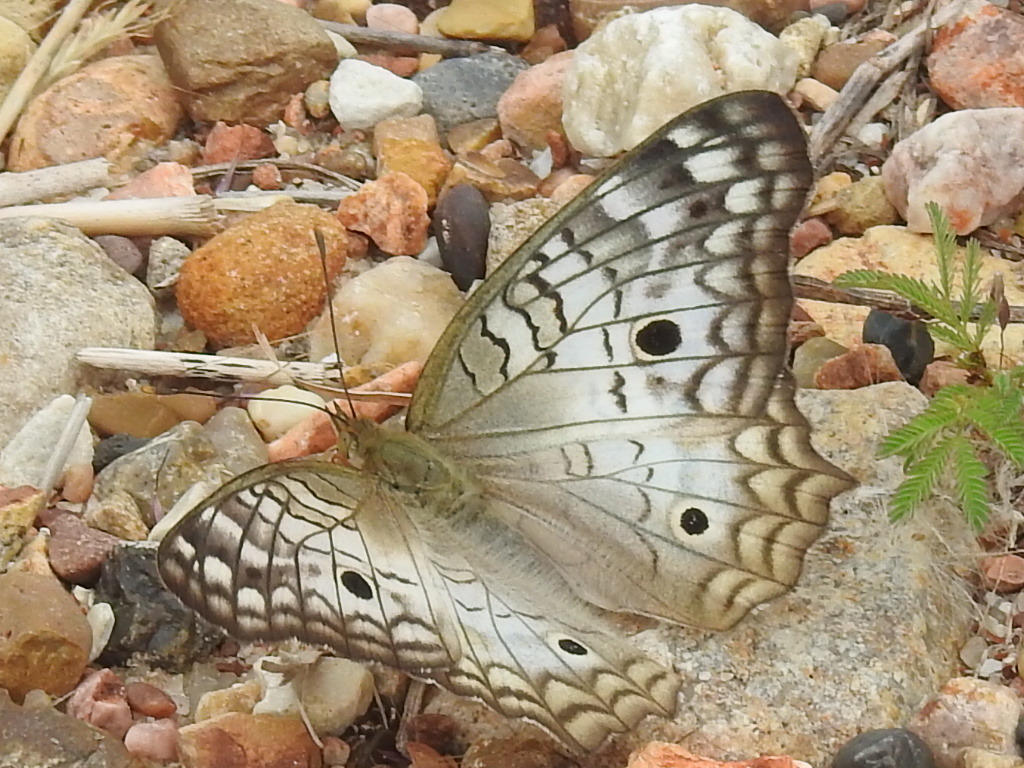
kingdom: Animalia
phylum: Arthropoda
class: Insecta
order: Lepidoptera
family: Nymphalidae
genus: Anartia
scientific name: Anartia jatrophae
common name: White peacock
